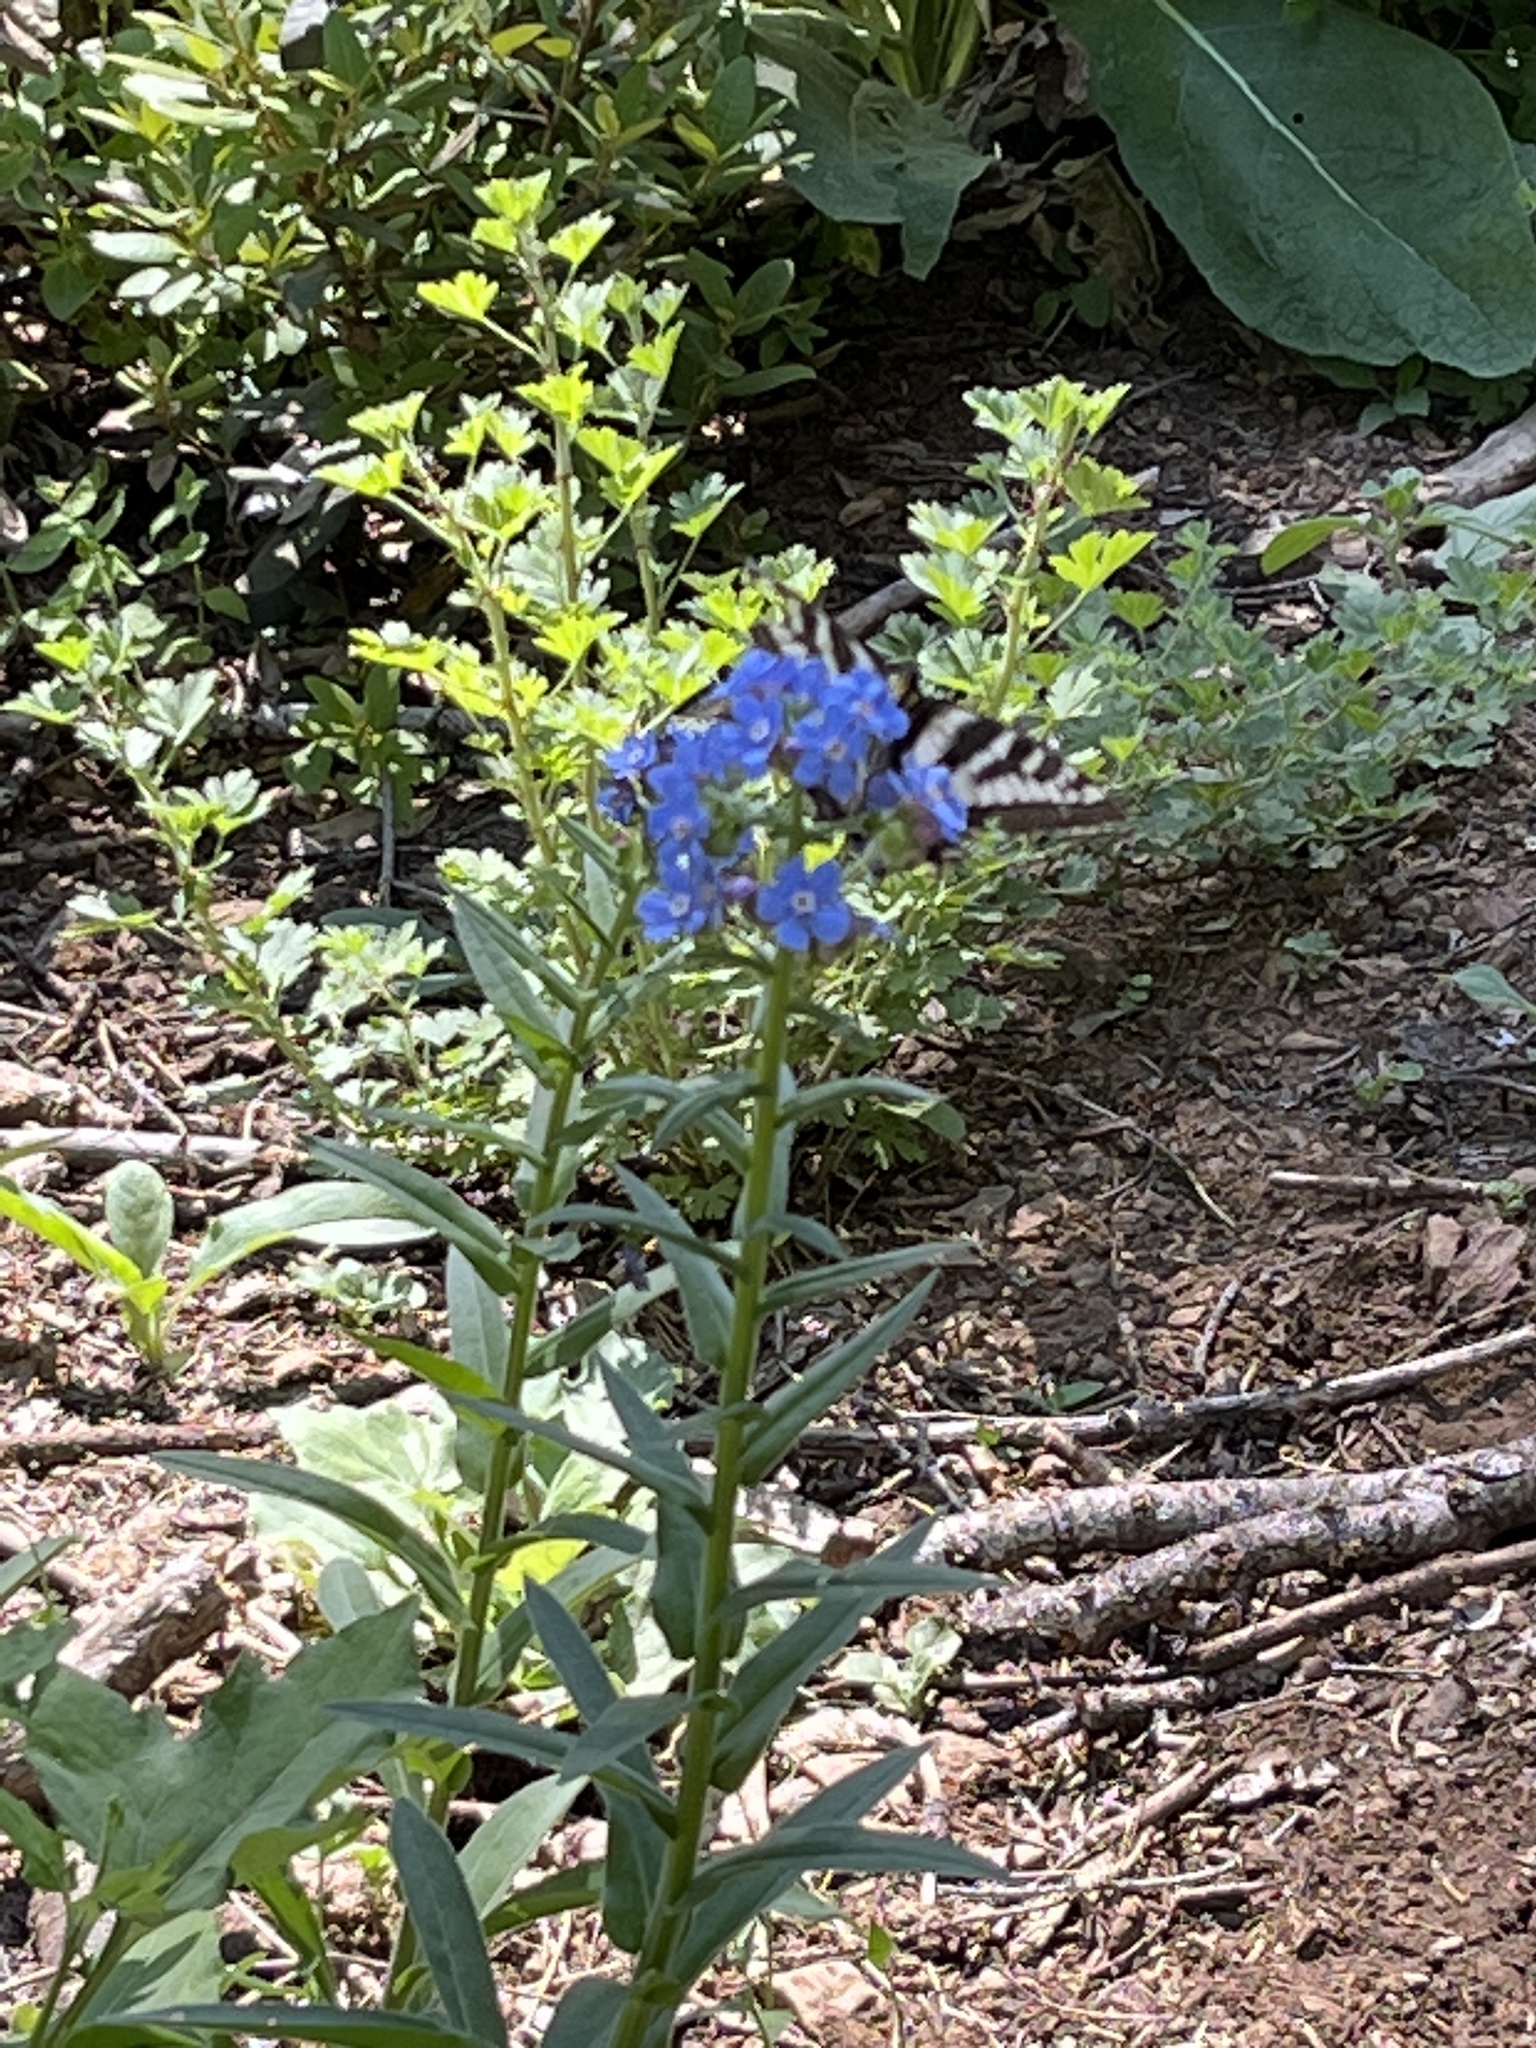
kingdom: Animalia
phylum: Arthropoda
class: Insecta
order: Lepidoptera
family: Papilionidae
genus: Papilio
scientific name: Papilio eurymedon
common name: Pale tiger swallowtail
